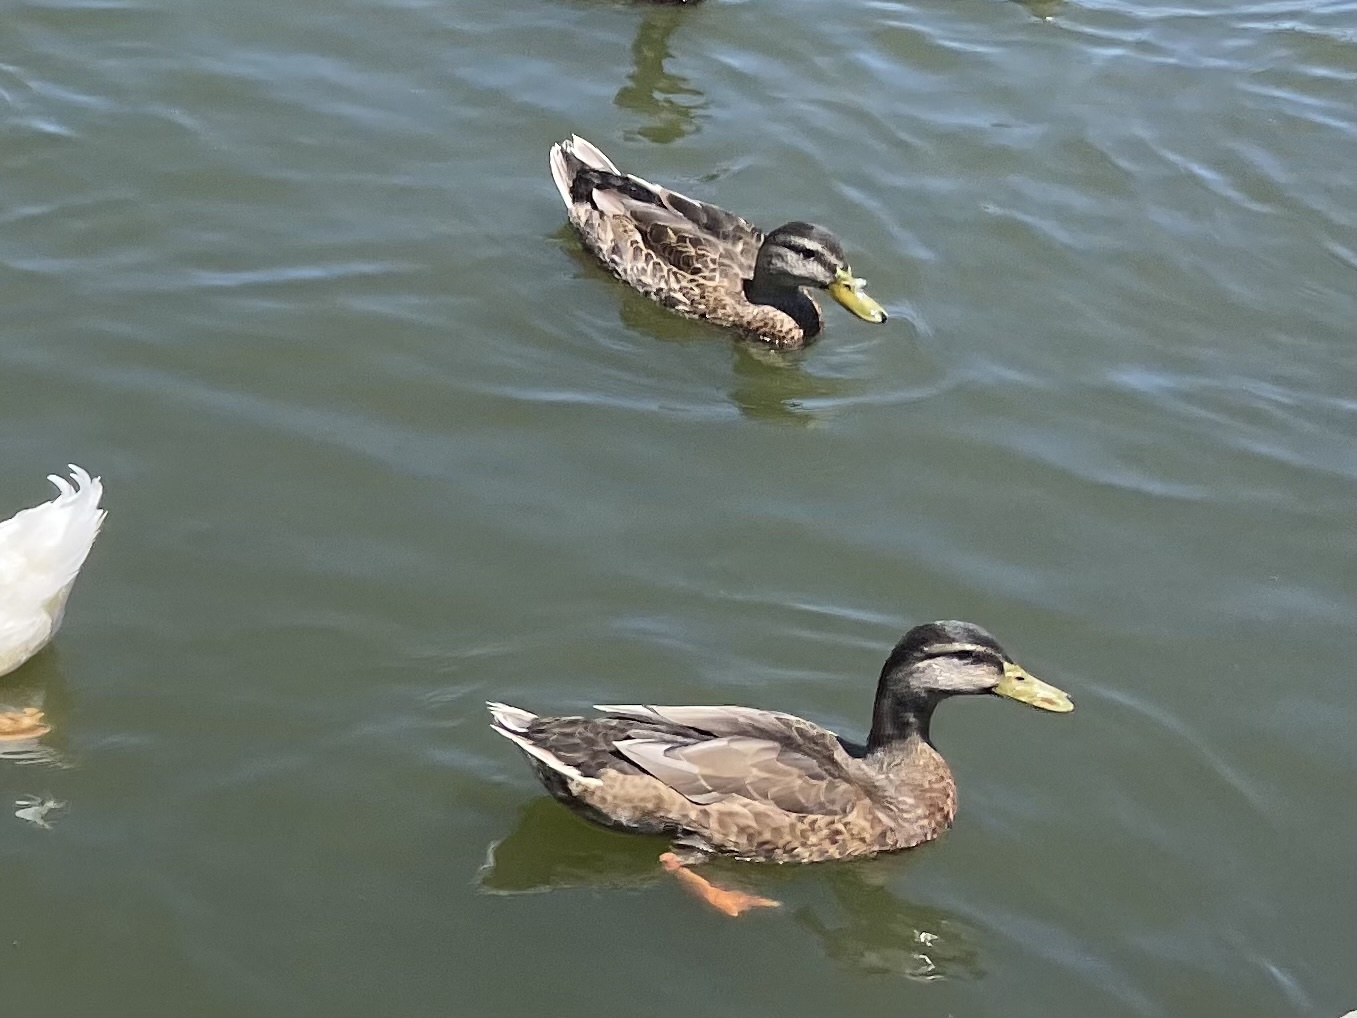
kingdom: Animalia
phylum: Chordata
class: Aves
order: Anseriformes
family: Anatidae
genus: Anas
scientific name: Anas platyrhynchos
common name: Mallard
